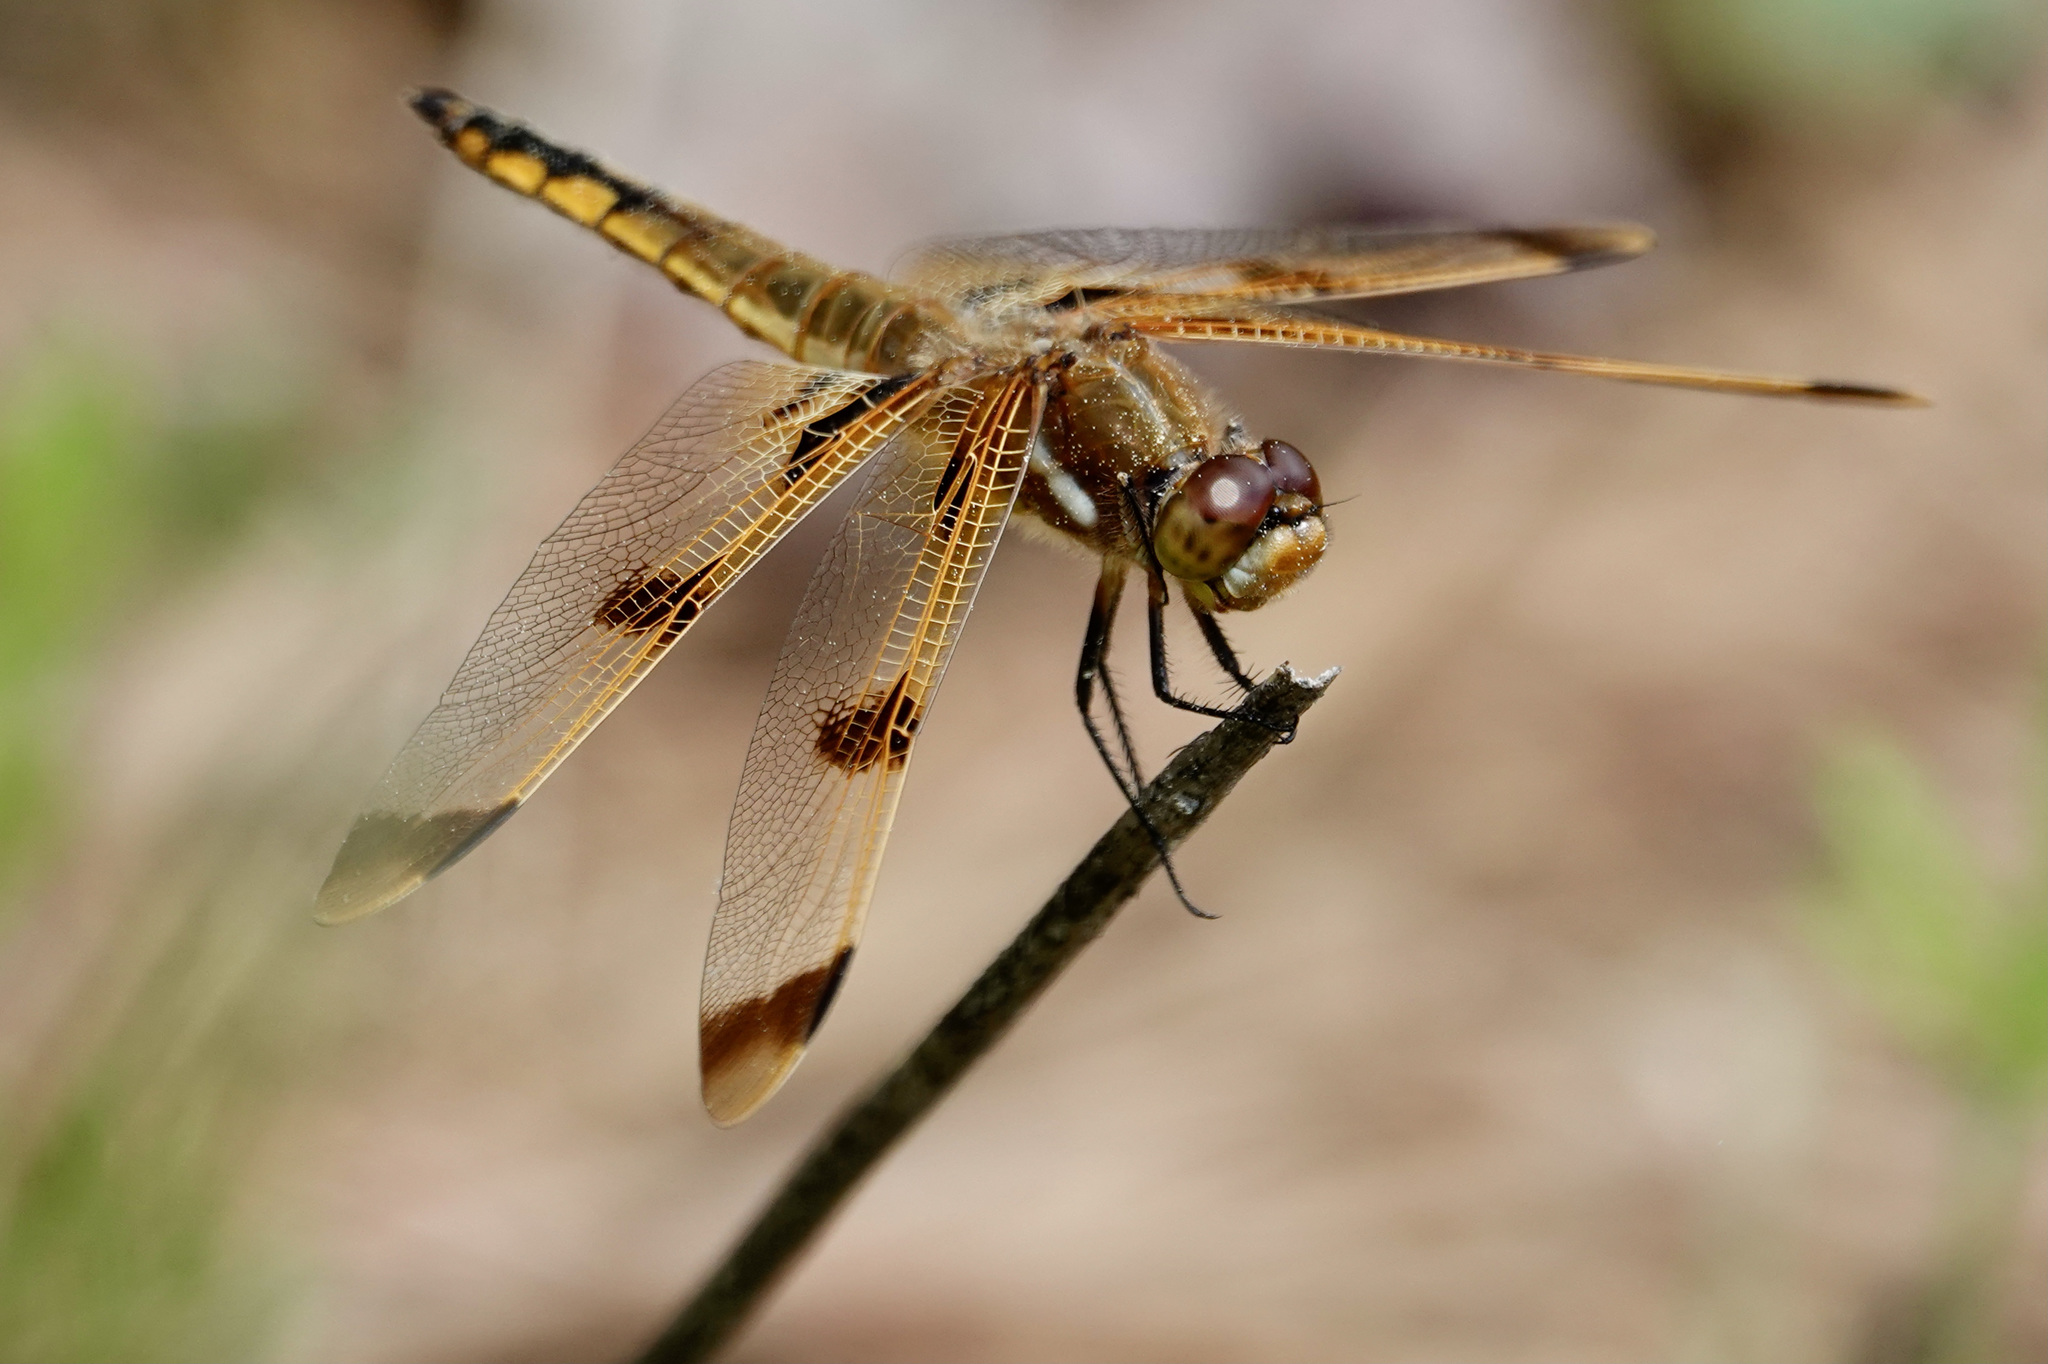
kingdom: Animalia
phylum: Arthropoda
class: Insecta
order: Odonata
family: Libellulidae
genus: Libellula
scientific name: Libellula semifasciata
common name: Painted skimmer
